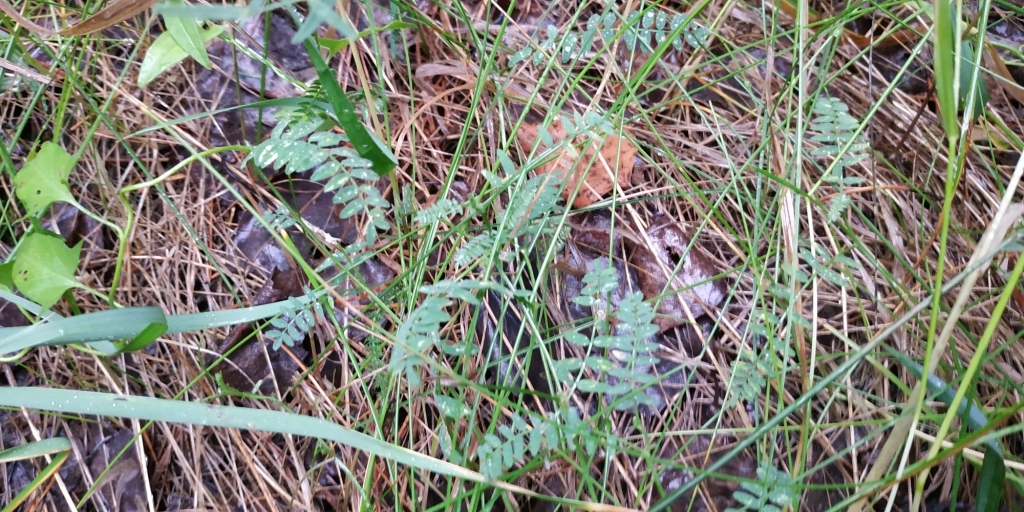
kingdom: Plantae
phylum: Tracheophyta
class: Magnoliopsida
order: Fabales
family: Fabaceae
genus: Astragalus
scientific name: Astragalus danicus
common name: Purple milk-vetch
